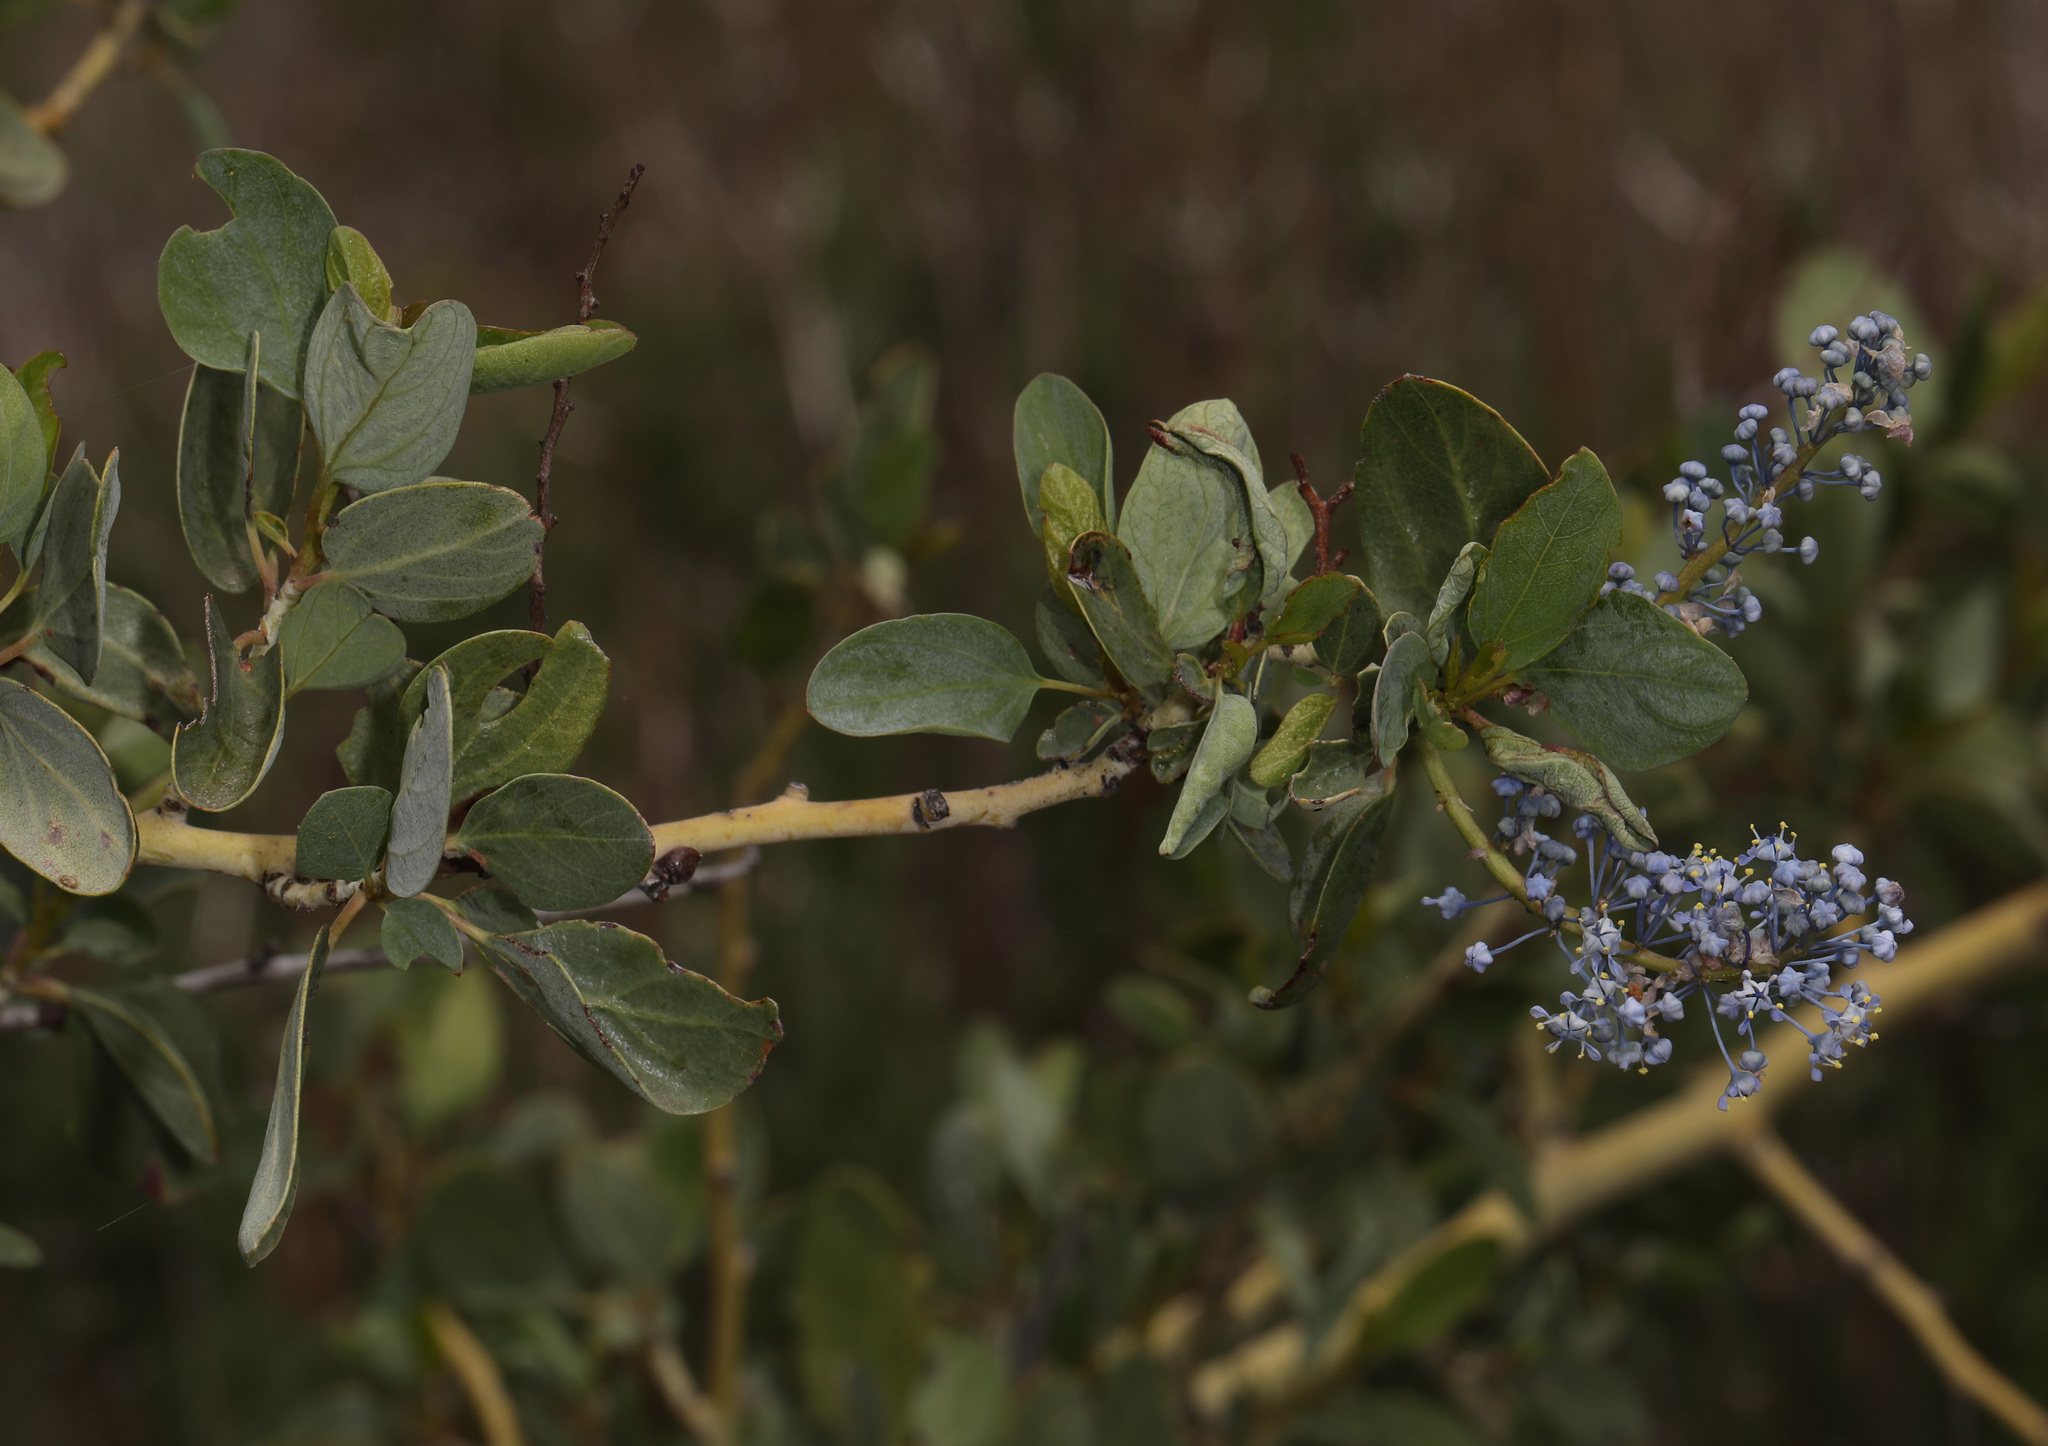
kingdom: Plantae
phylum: Tracheophyta
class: Magnoliopsida
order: Rosales
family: Rhamnaceae
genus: Ceanothus
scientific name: Ceanothus leucodermis
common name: Chaparral whitethorn
